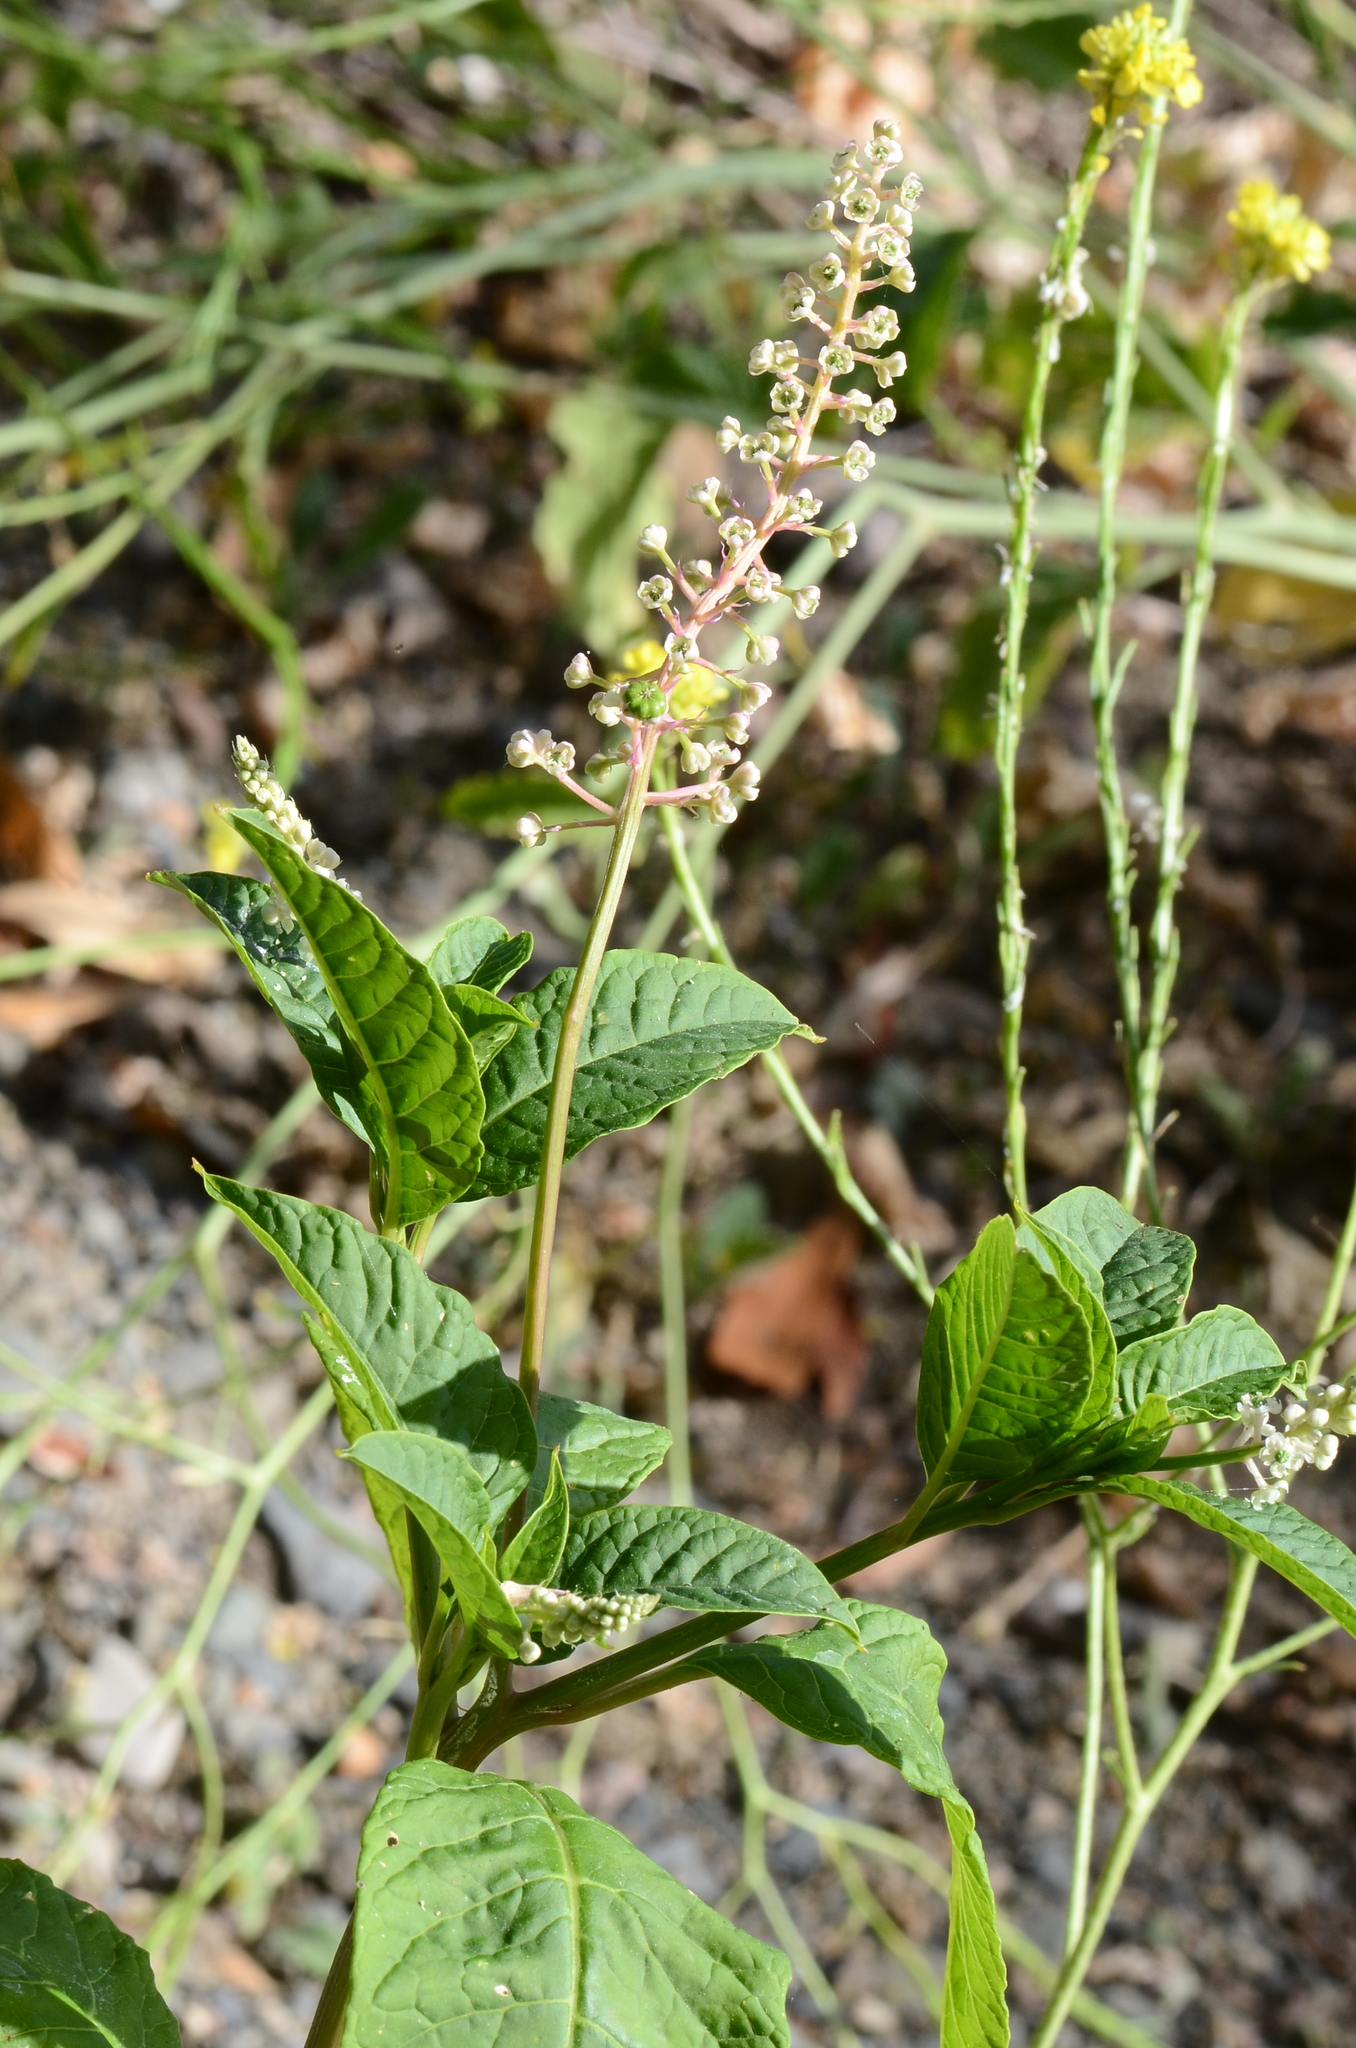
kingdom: Plantae
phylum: Tracheophyta
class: Magnoliopsida
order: Caryophyllales
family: Phytolaccaceae
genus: Phytolacca
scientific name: Phytolacca americana
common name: American pokeweed
